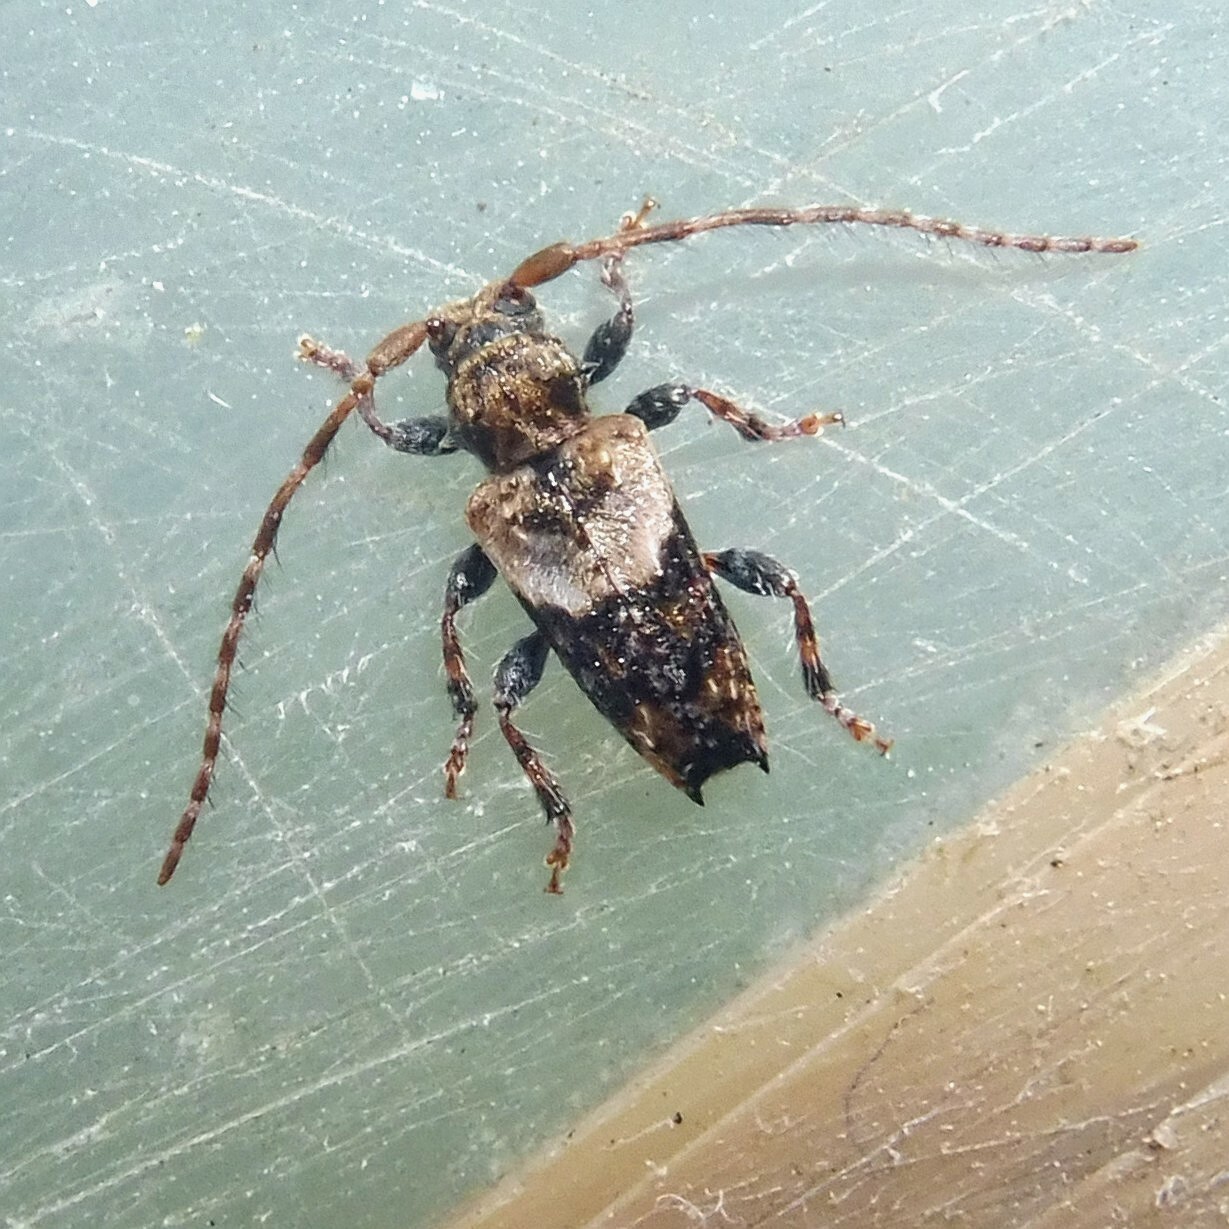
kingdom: Animalia
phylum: Arthropoda
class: Insecta
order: Coleoptera
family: Cerambycidae
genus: Pogonocherus
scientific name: Pogonocherus hispidus
